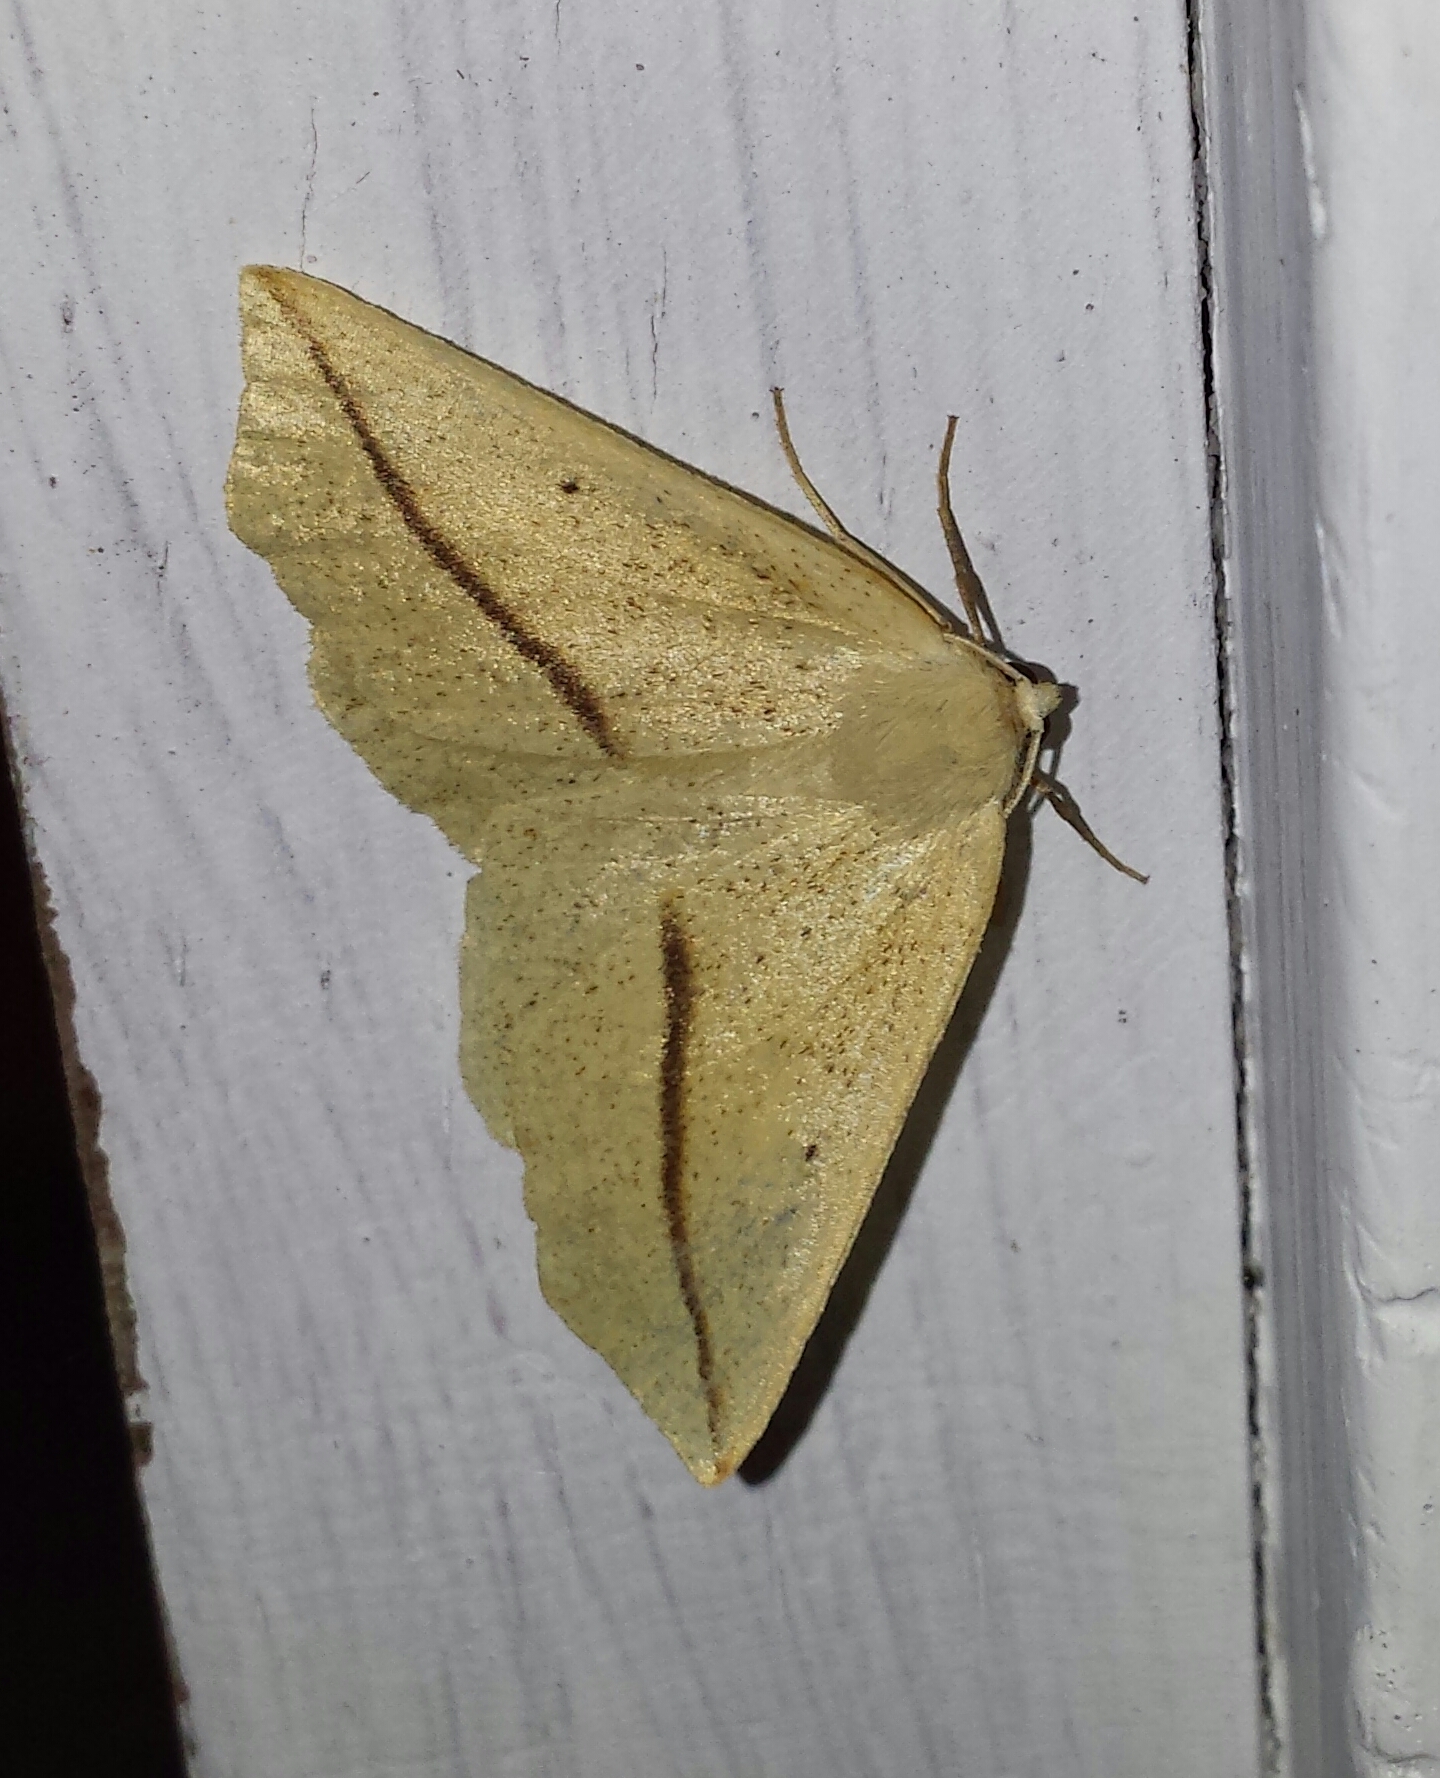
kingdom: Animalia
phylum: Arthropoda
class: Insecta
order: Lepidoptera
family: Geometridae
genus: Tetracis
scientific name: Tetracis crocallata
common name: Yellow slant-line
